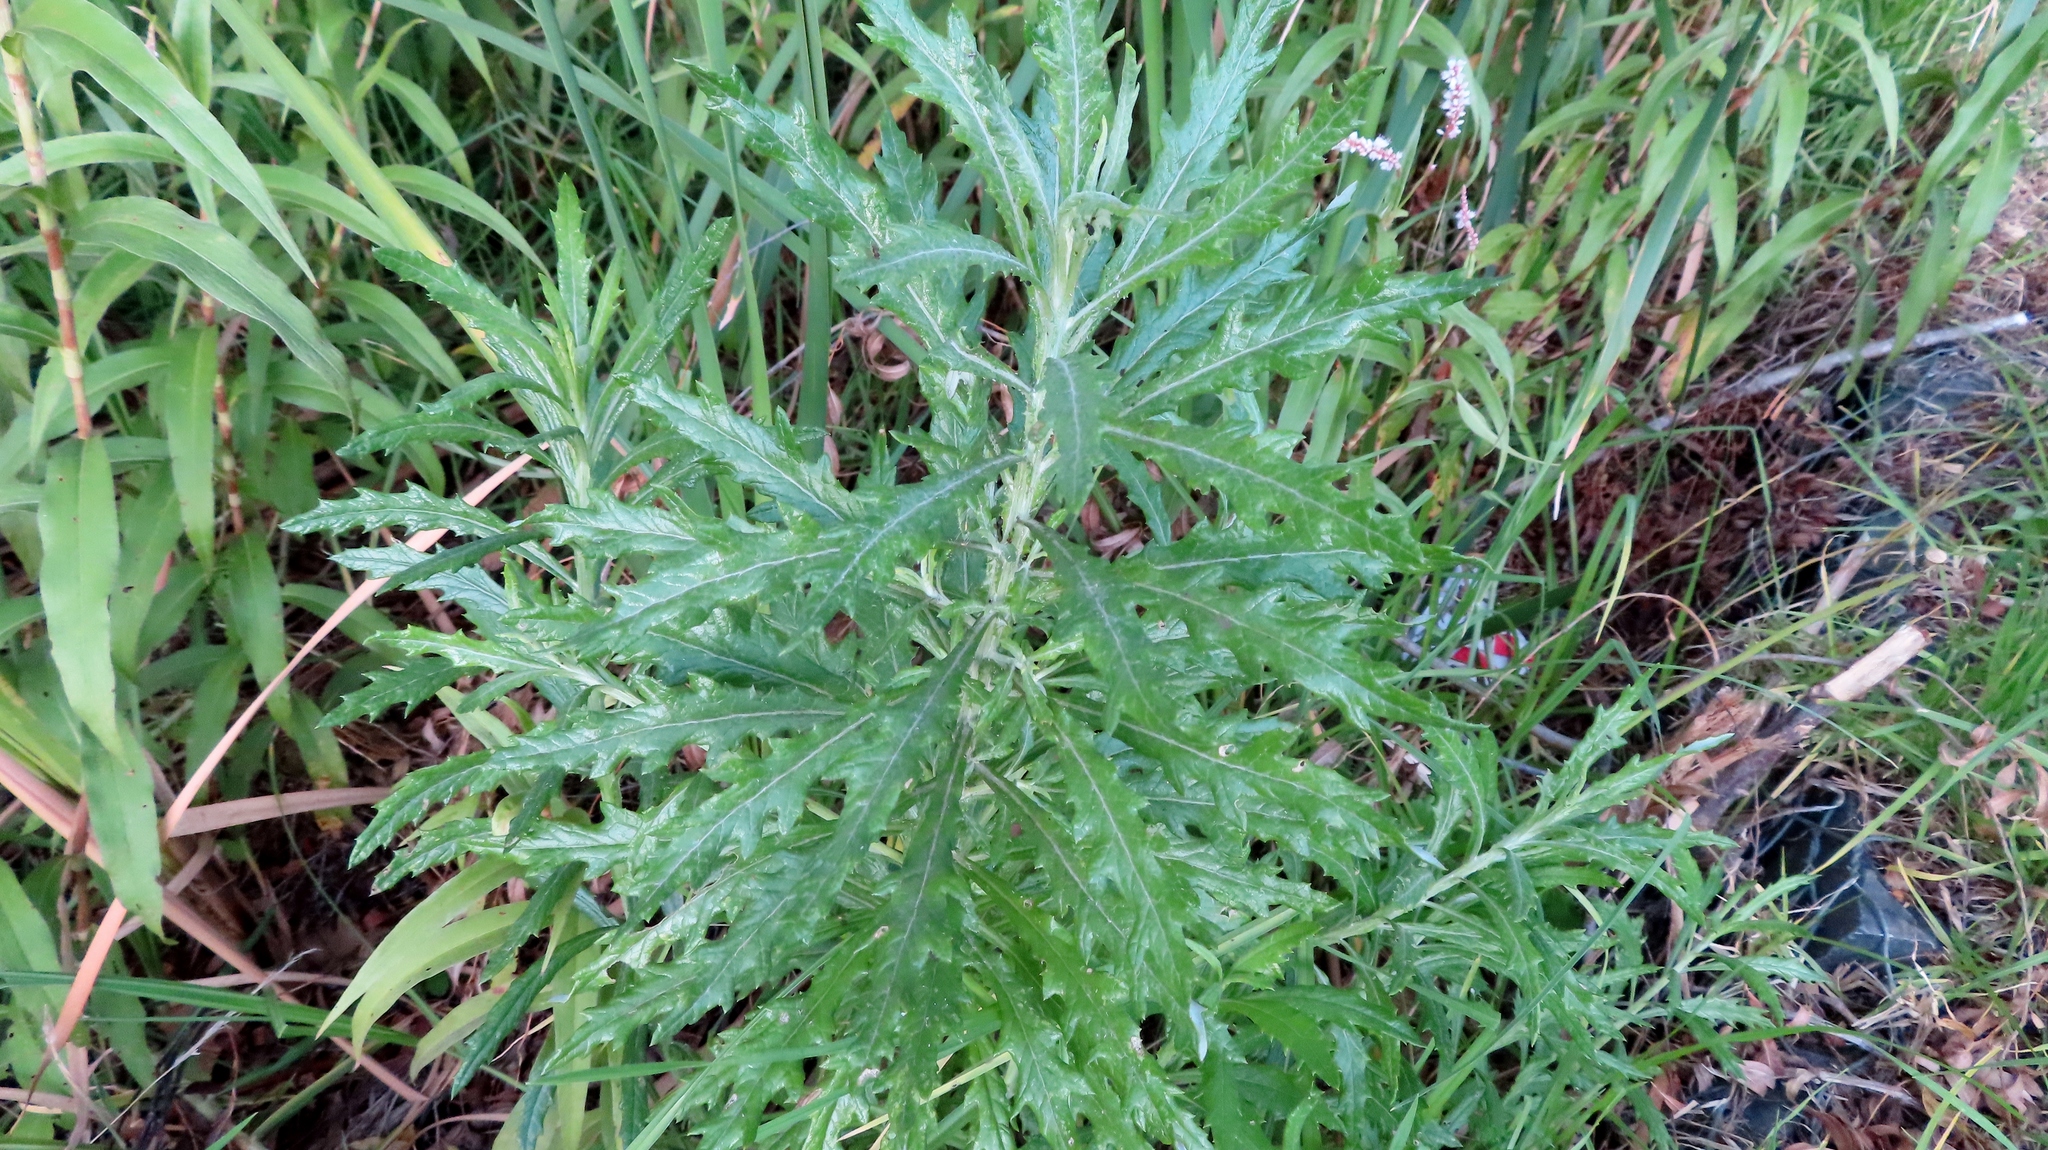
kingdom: Plantae
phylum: Tracheophyta
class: Magnoliopsida
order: Asterales
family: Asteraceae
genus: Senecio
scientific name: Senecio pterophorus
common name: Shoddy ragwort
